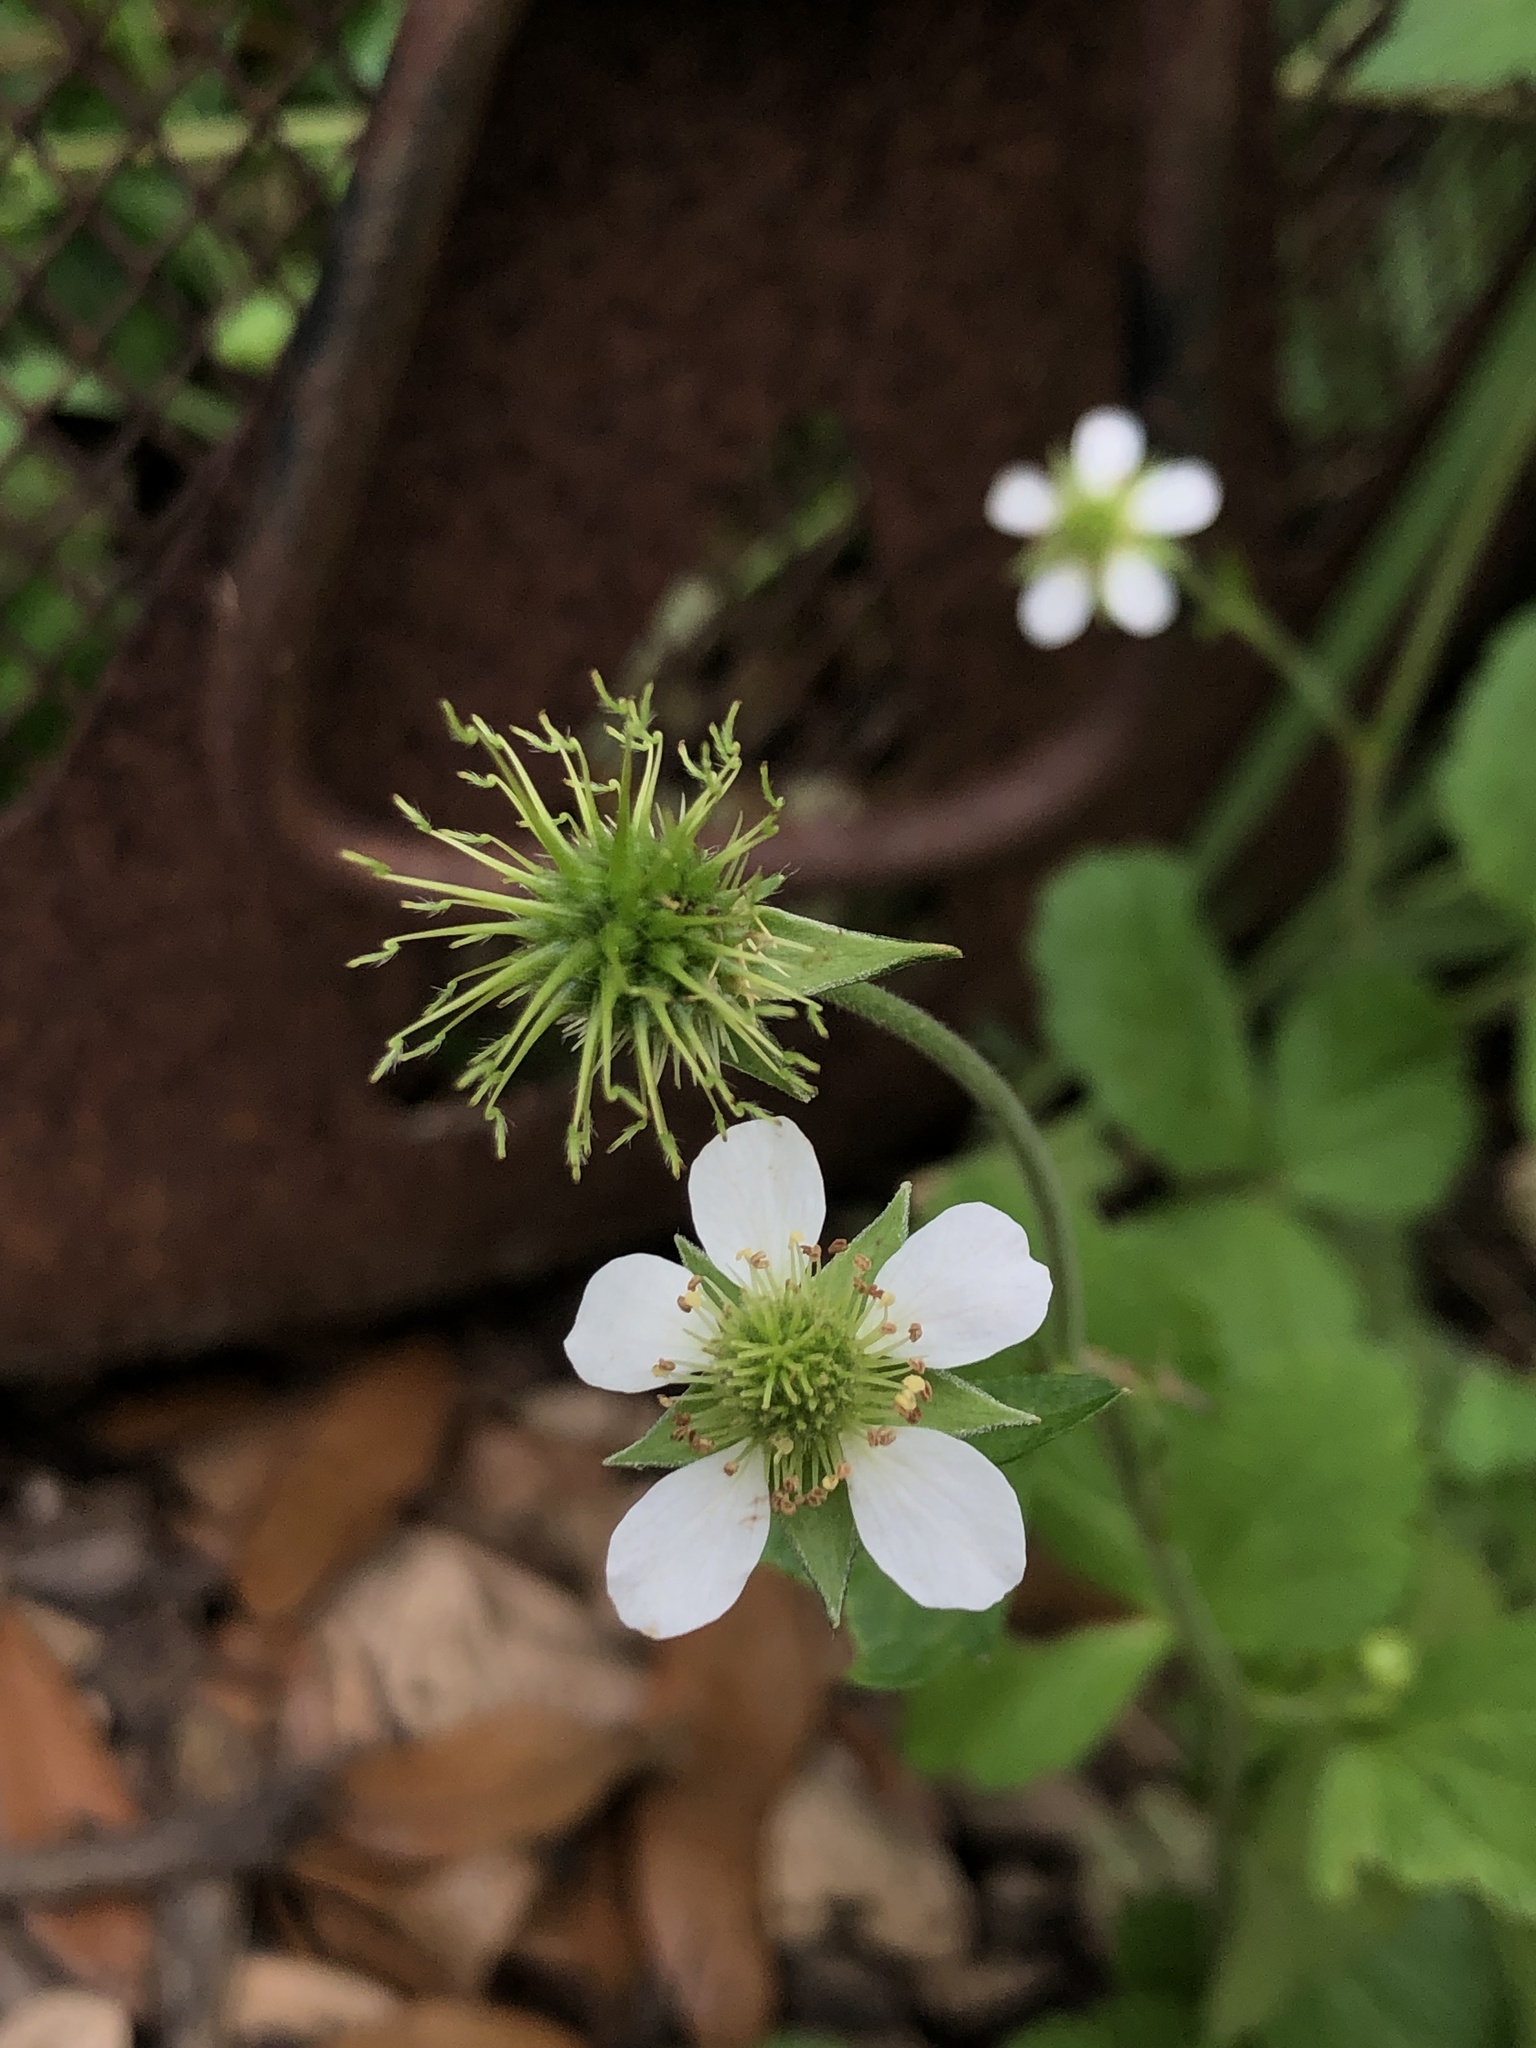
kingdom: Plantae
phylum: Tracheophyta
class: Magnoliopsida
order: Rosales
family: Rosaceae
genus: Geum
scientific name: Geum canadense
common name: White avens
